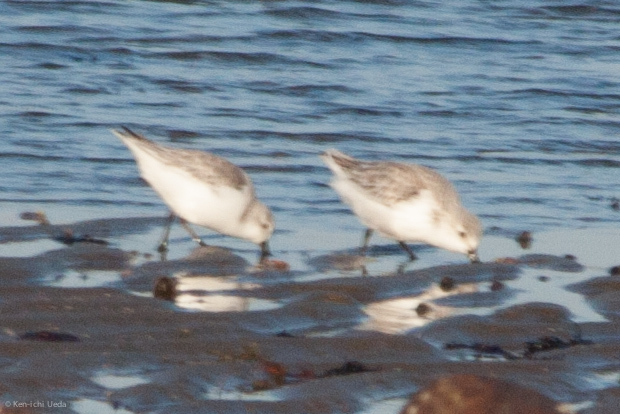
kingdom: Animalia
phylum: Chordata
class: Aves
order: Charadriiformes
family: Scolopacidae
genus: Calidris
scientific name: Calidris alba
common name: Sanderling
